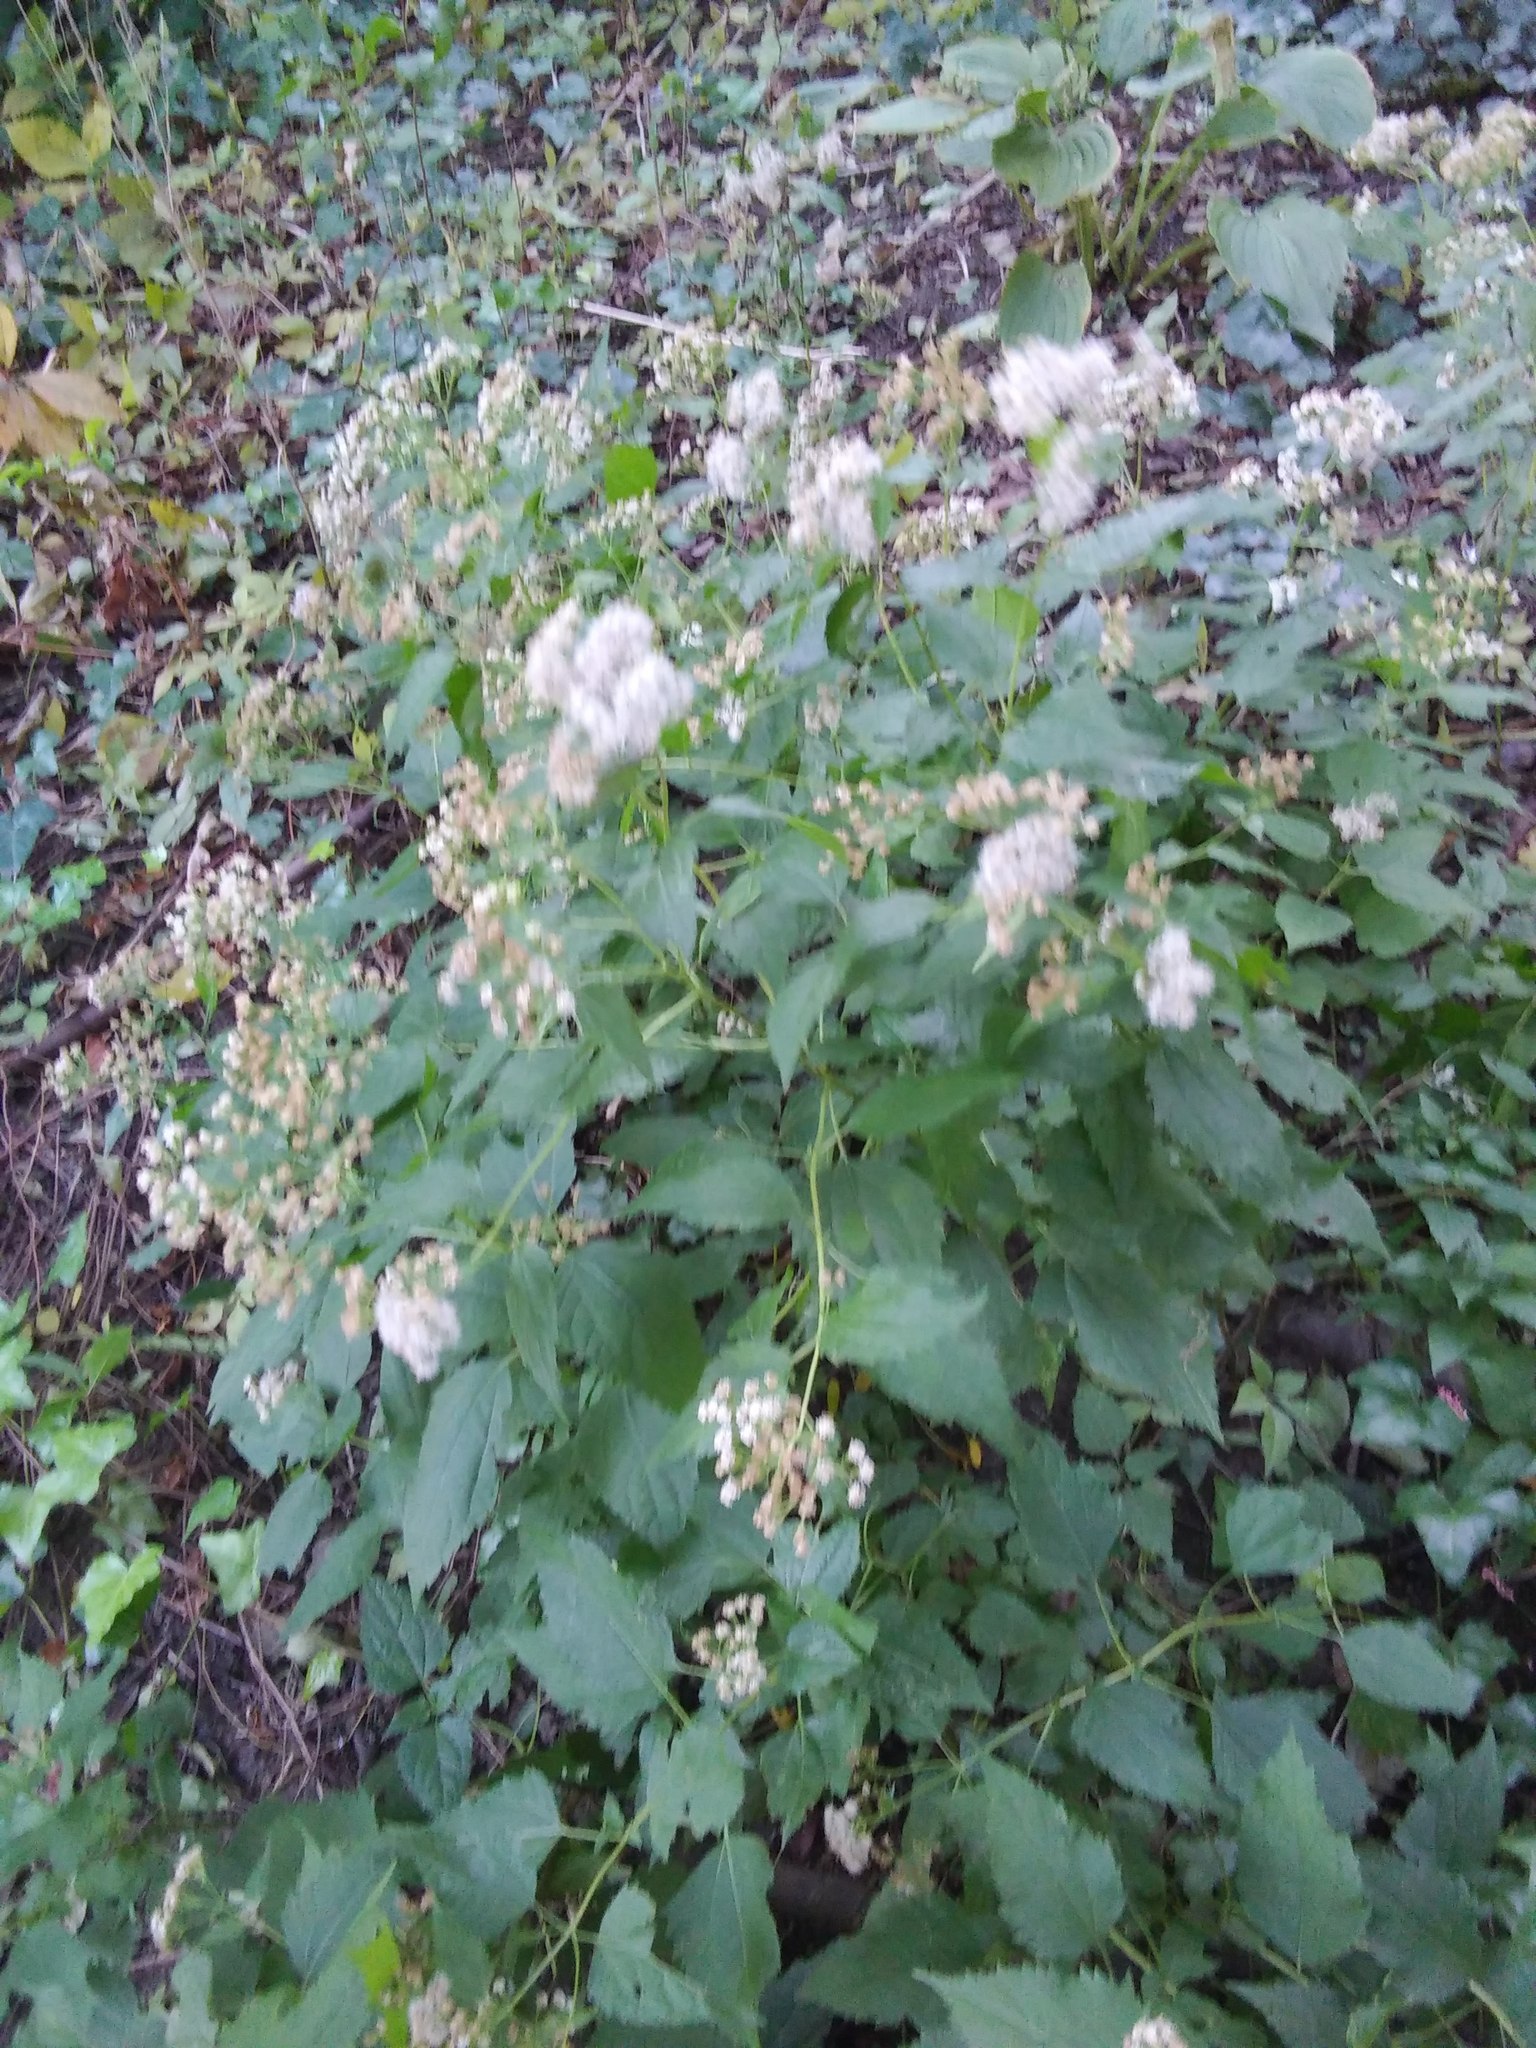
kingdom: Plantae
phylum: Tracheophyta
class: Magnoliopsida
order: Asterales
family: Asteraceae
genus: Ageratina
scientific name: Ageratina altissima
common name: White snakeroot
